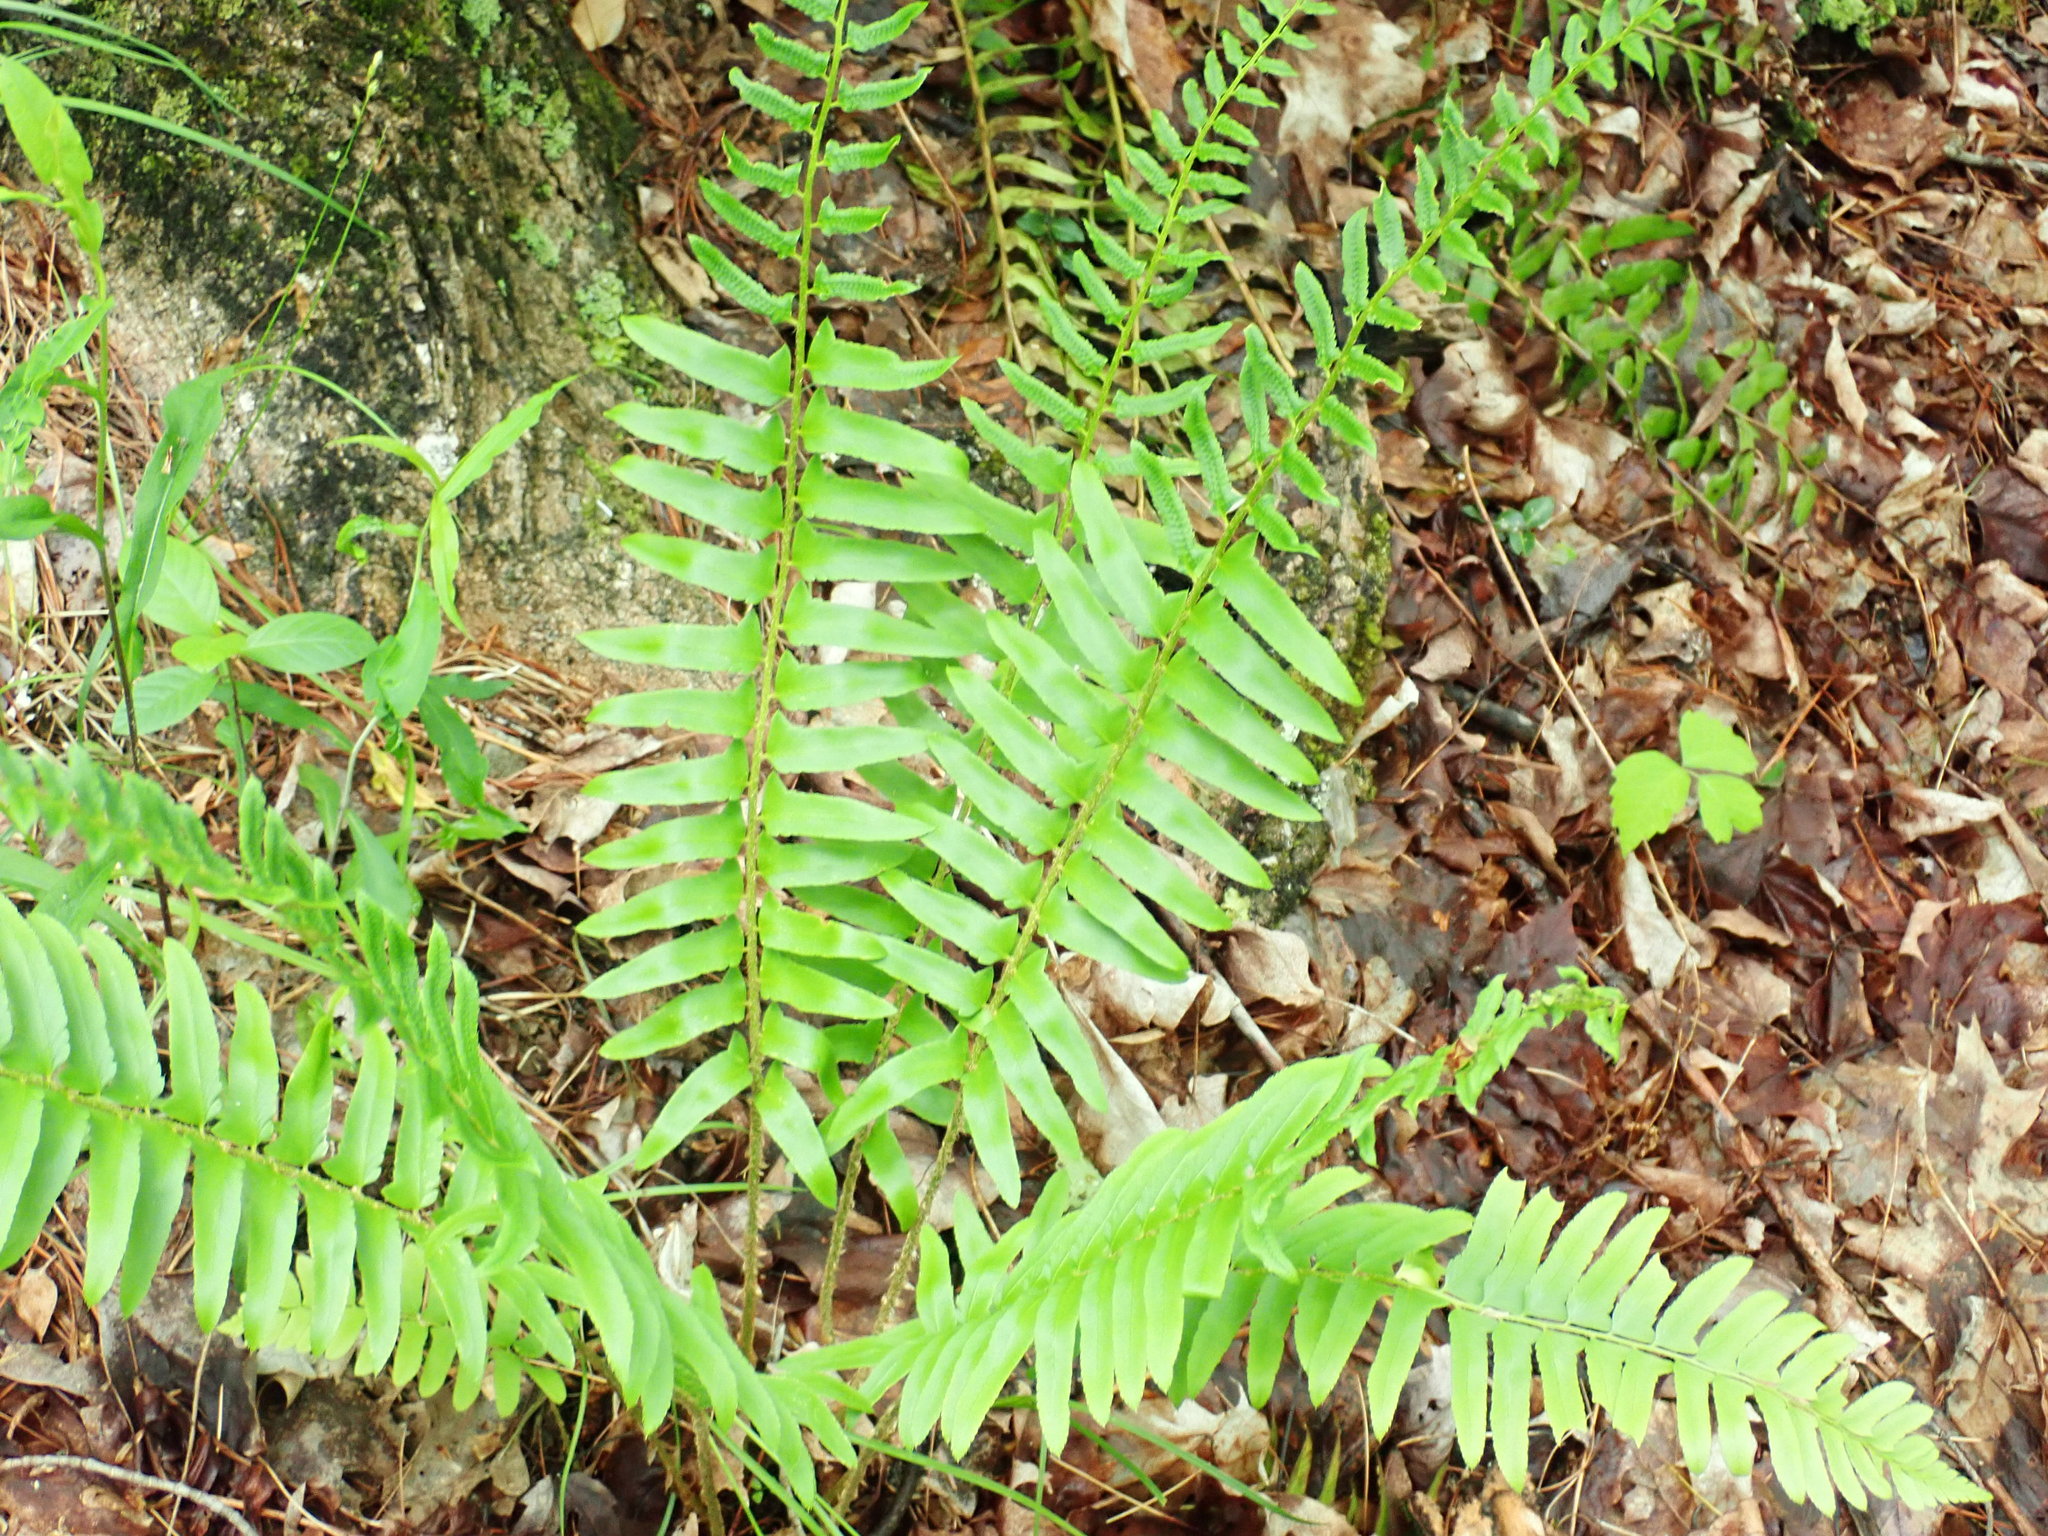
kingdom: Plantae
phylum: Tracheophyta
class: Polypodiopsida
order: Polypodiales
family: Dryopteridaceae
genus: Polystichum
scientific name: Polystichum acrostichoides
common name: Christmas fern
